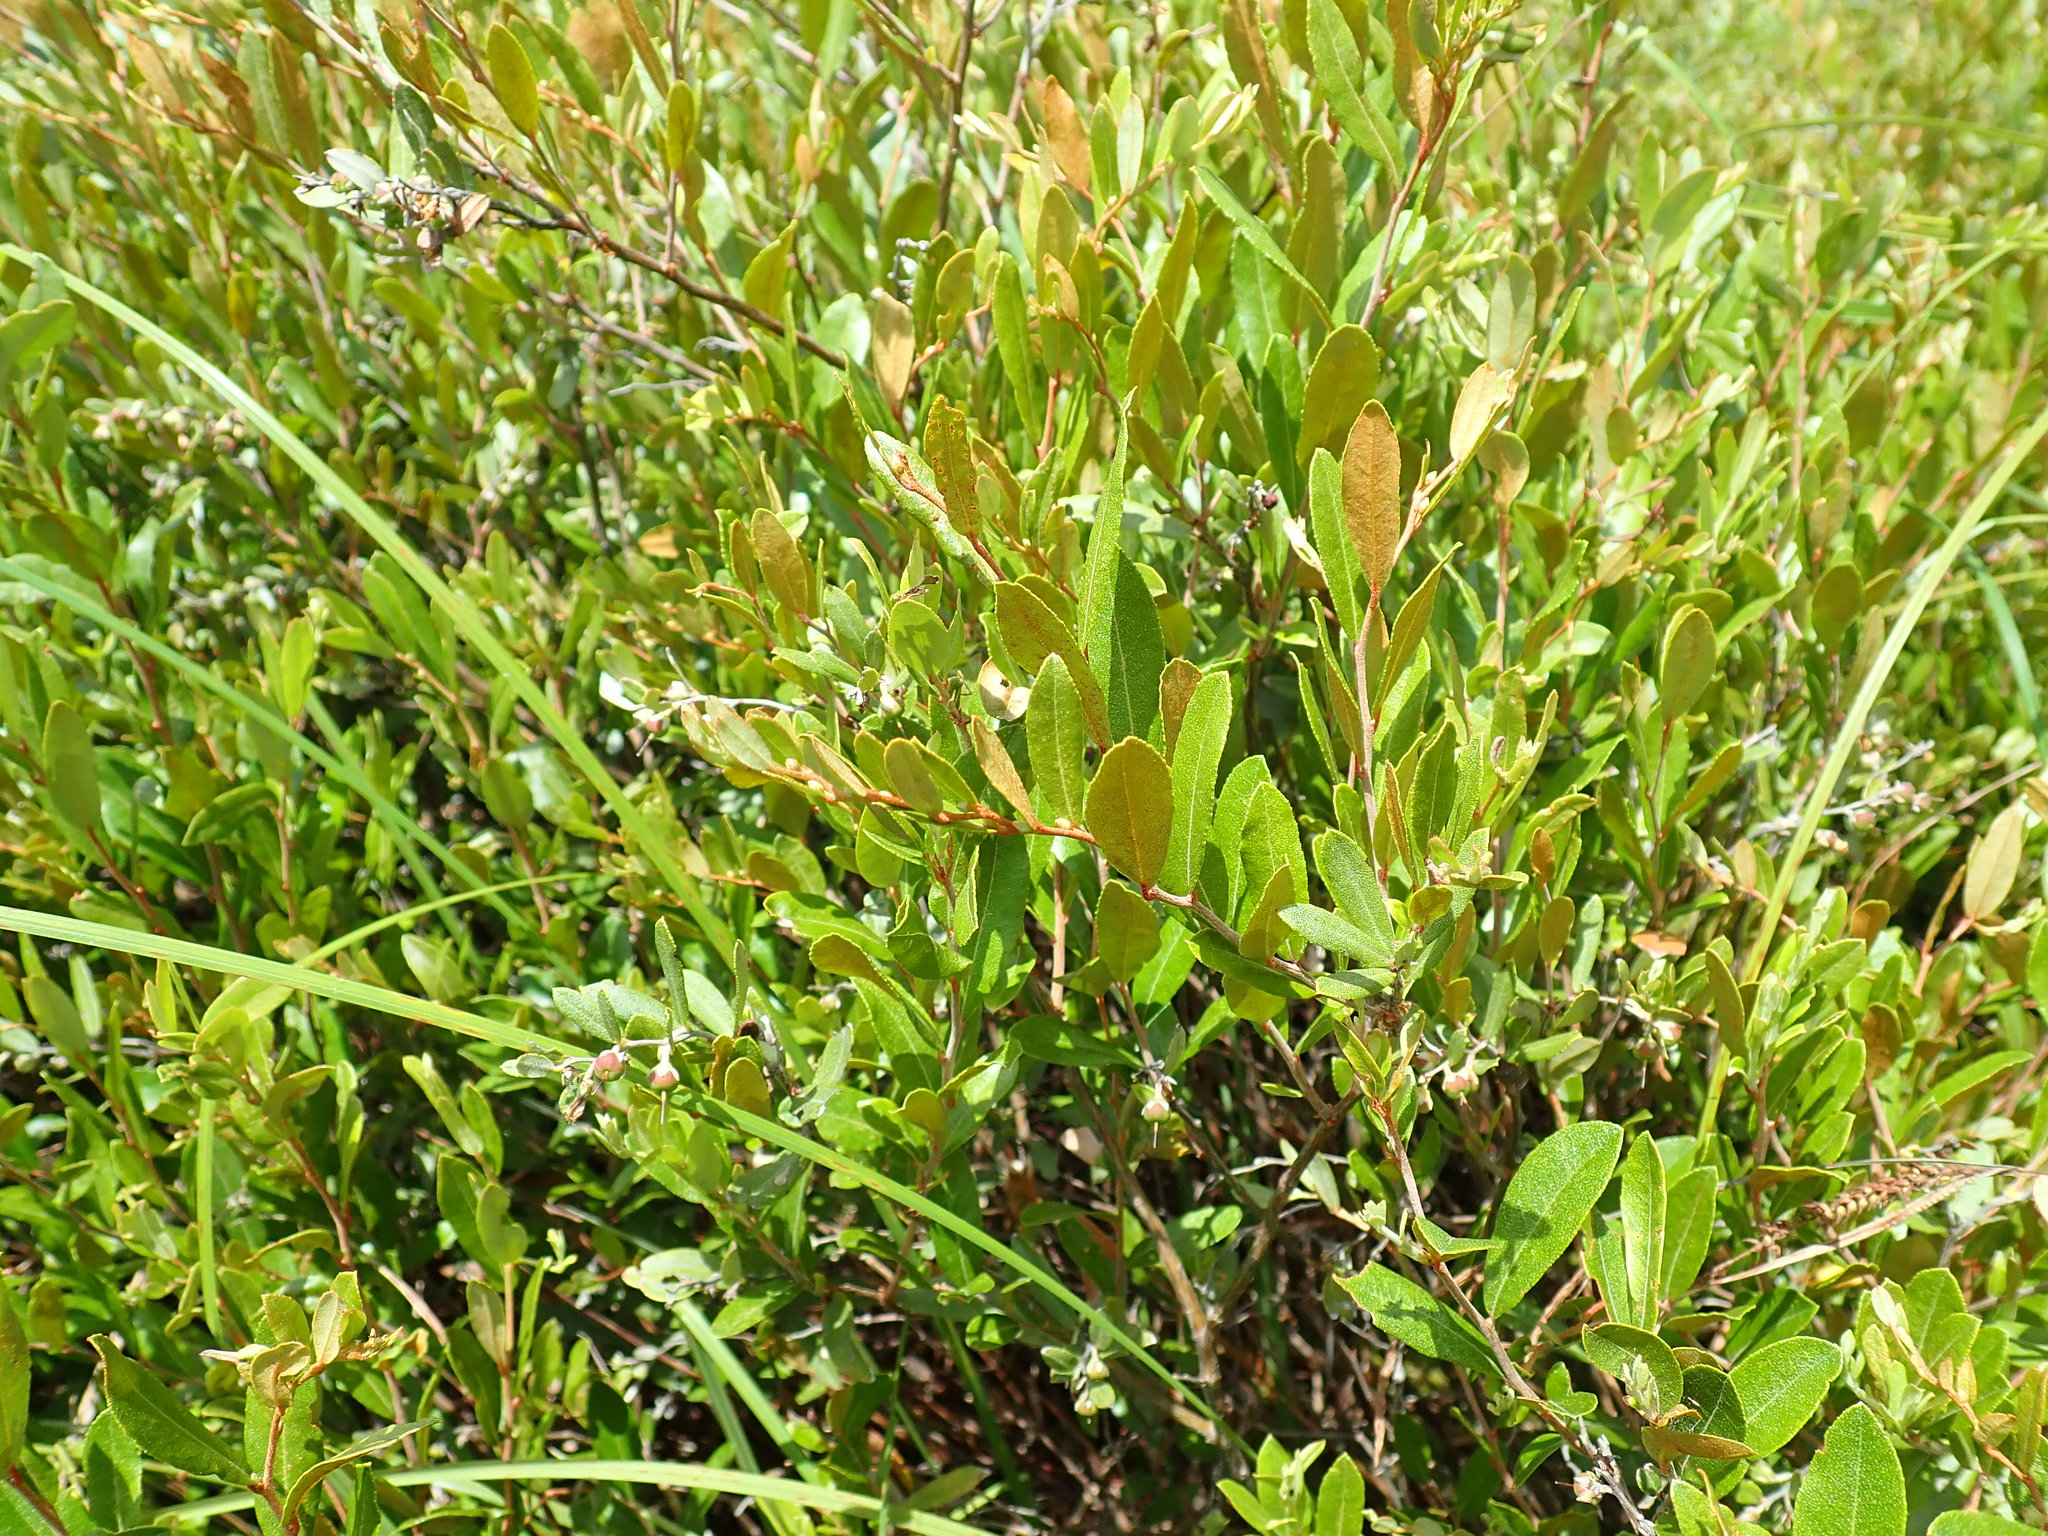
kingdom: Plantae
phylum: Tracheophyta
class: Magnoliopsida
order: Ericales
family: Ericaceae
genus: Chamaedaphne
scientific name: Chamaedaphne calyculata
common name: Leatherleaf
